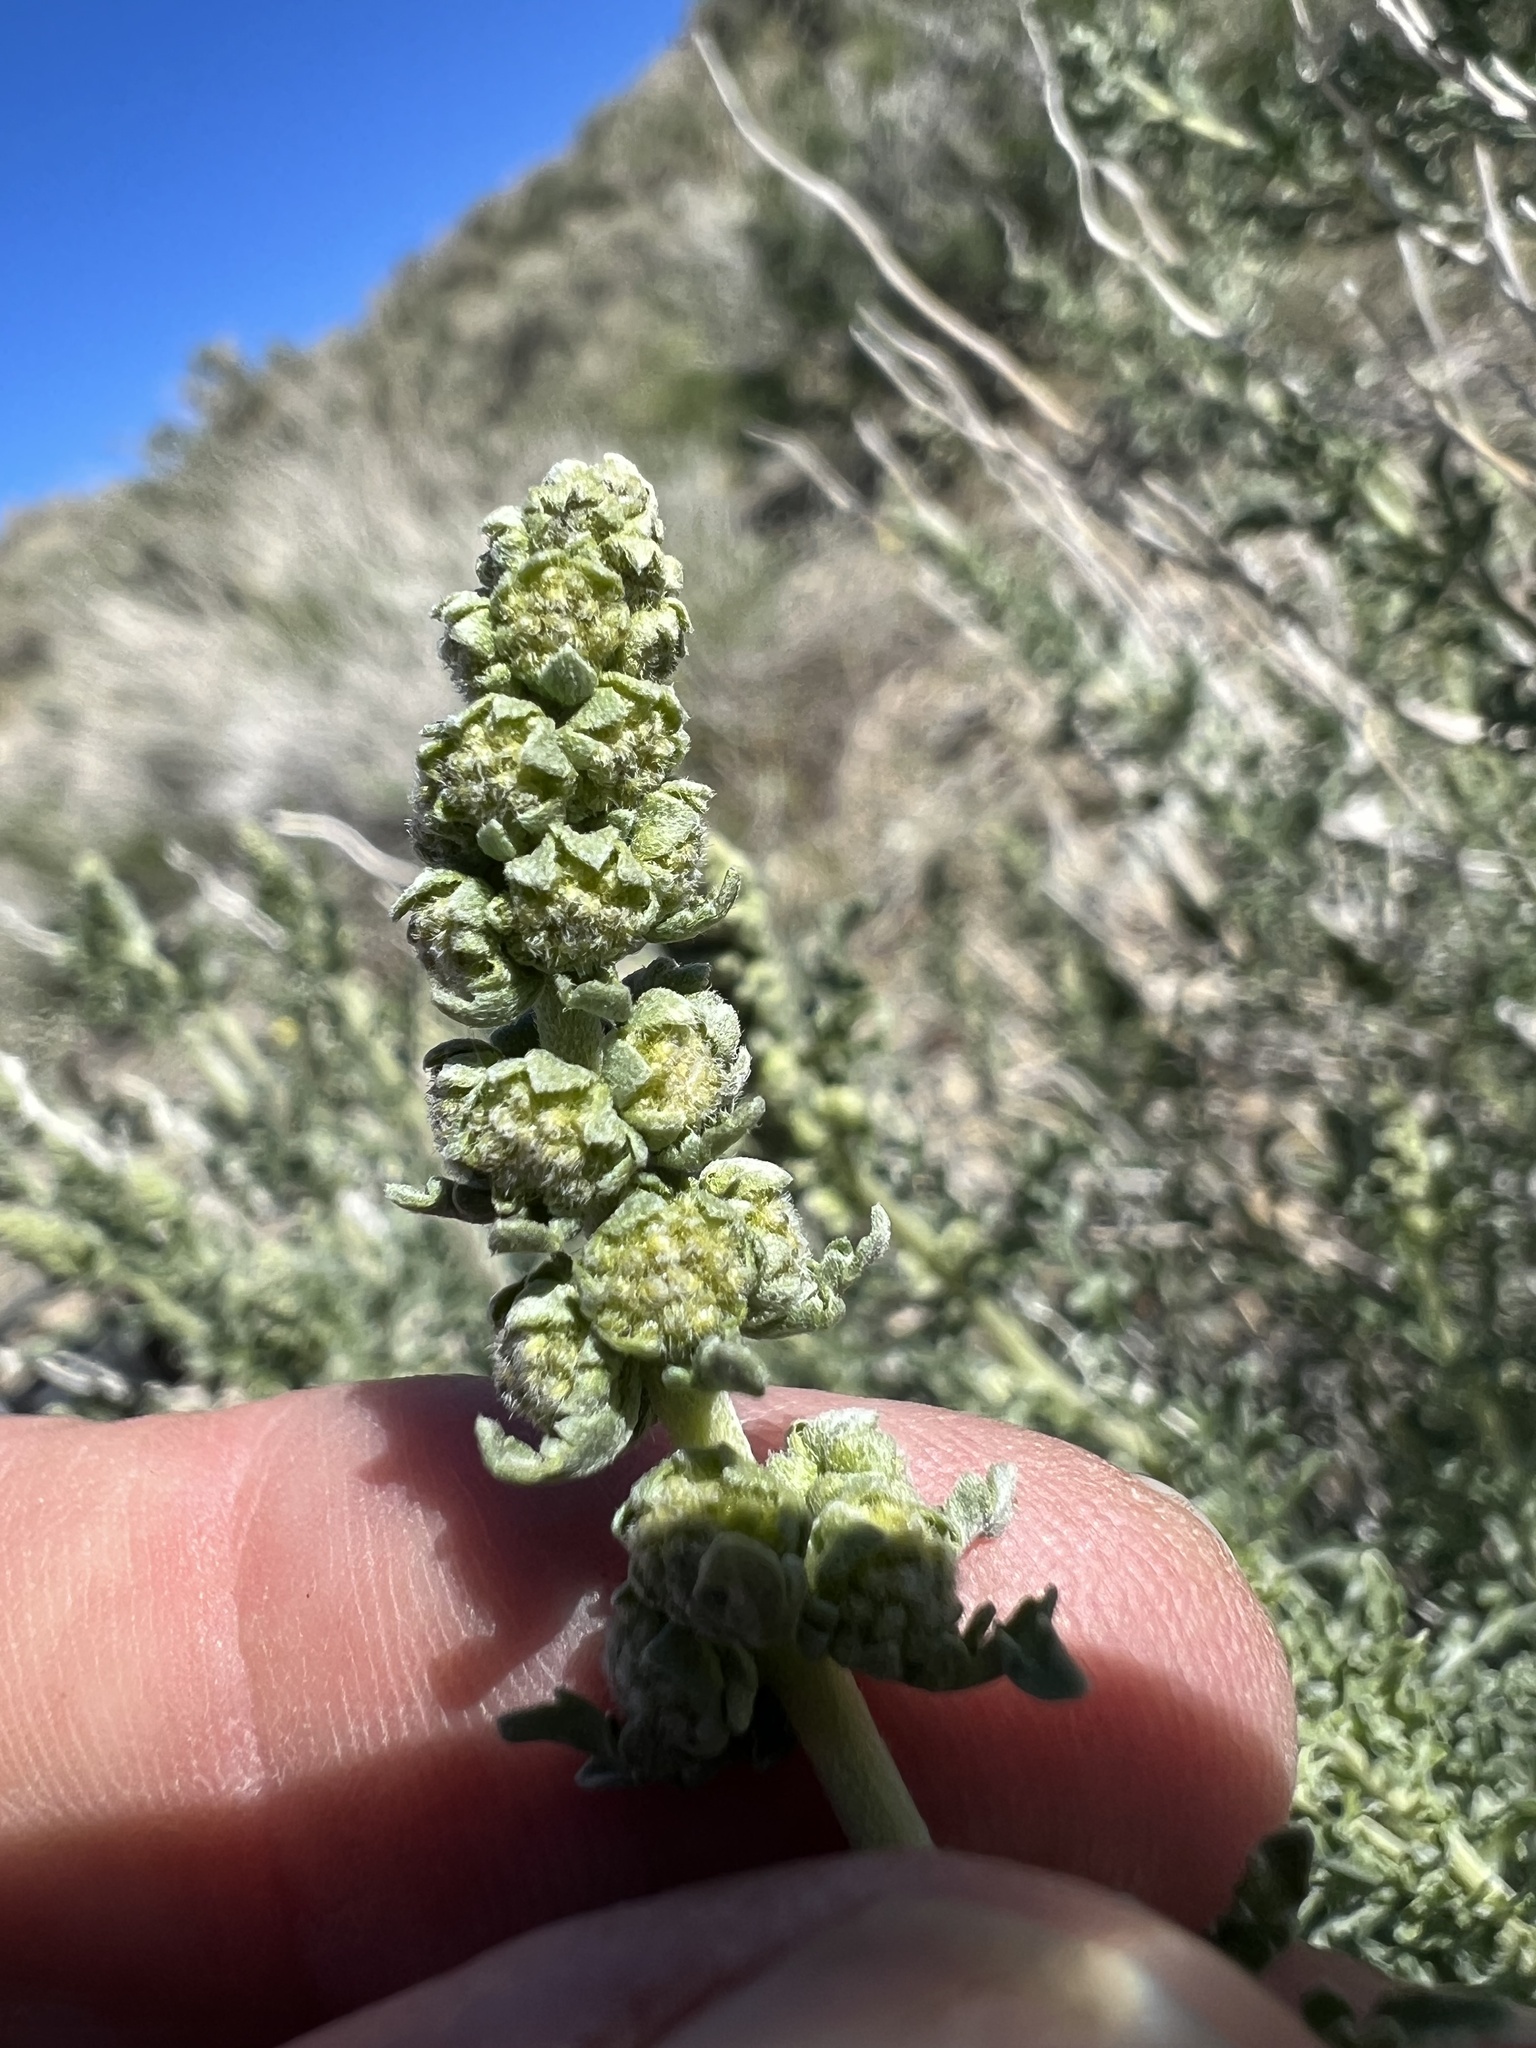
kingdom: Plantae
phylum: Tracheophyta
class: Magnoliopsida
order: Asterales
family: Asteraceae
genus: Ambrosia
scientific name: Ambrosia dumosa
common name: Bur-sage
